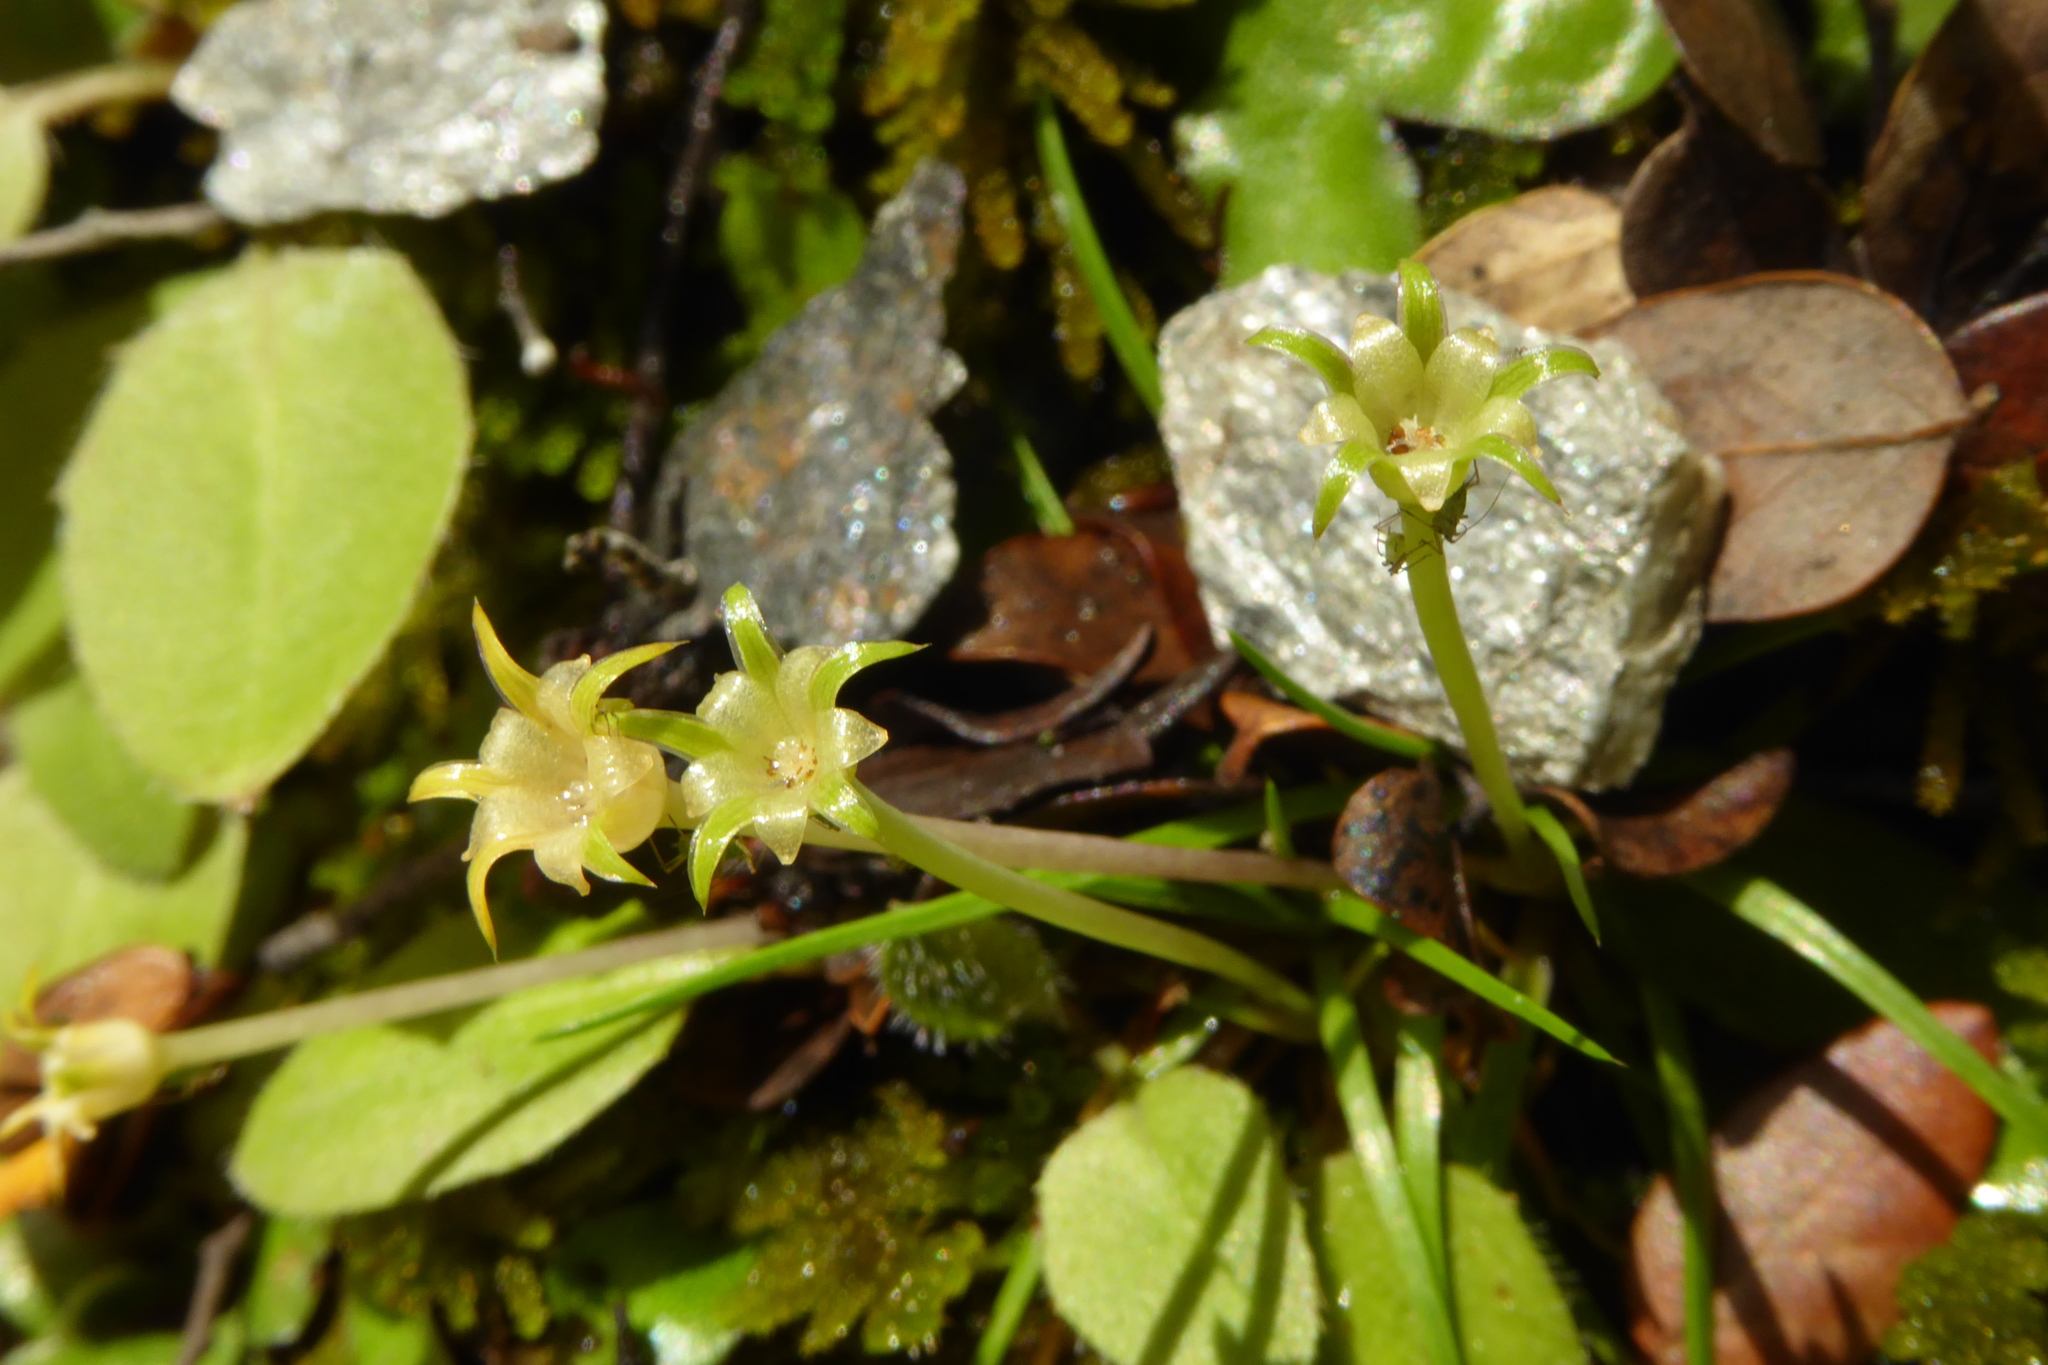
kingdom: Plantae
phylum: Tracheophyta
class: Magnoliopsida
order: Caryophyllales
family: Caryophyllaceae
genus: Colobanthus
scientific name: Colobanthus apetalus
